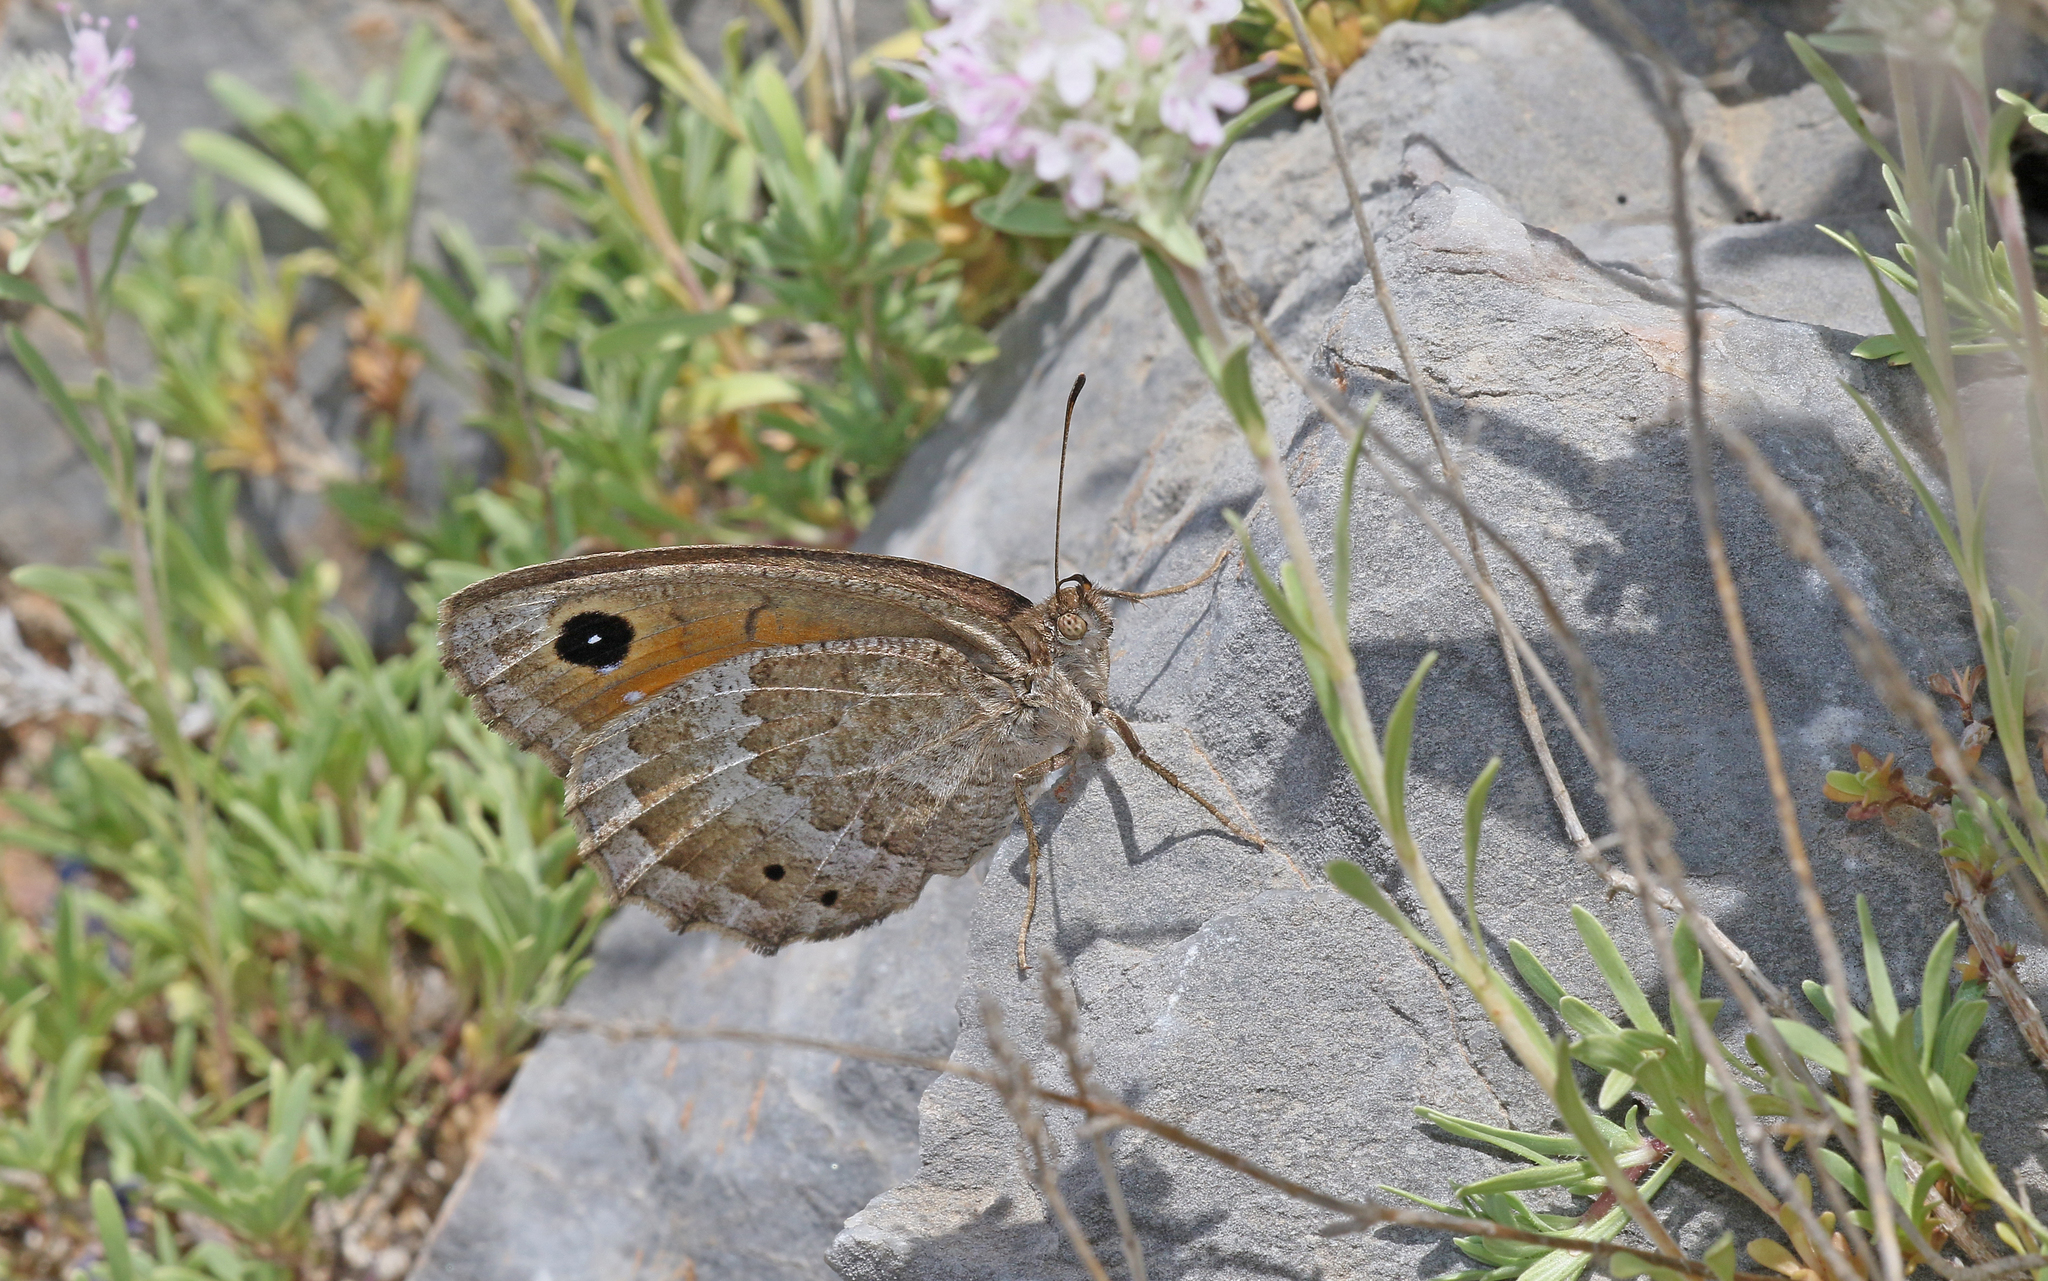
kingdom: Animalia
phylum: Arthropoda
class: Insecta
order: Lepidoptera
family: Nymphalidae
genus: Satyrus
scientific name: Satyrus ferula
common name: Great sooty satyr
